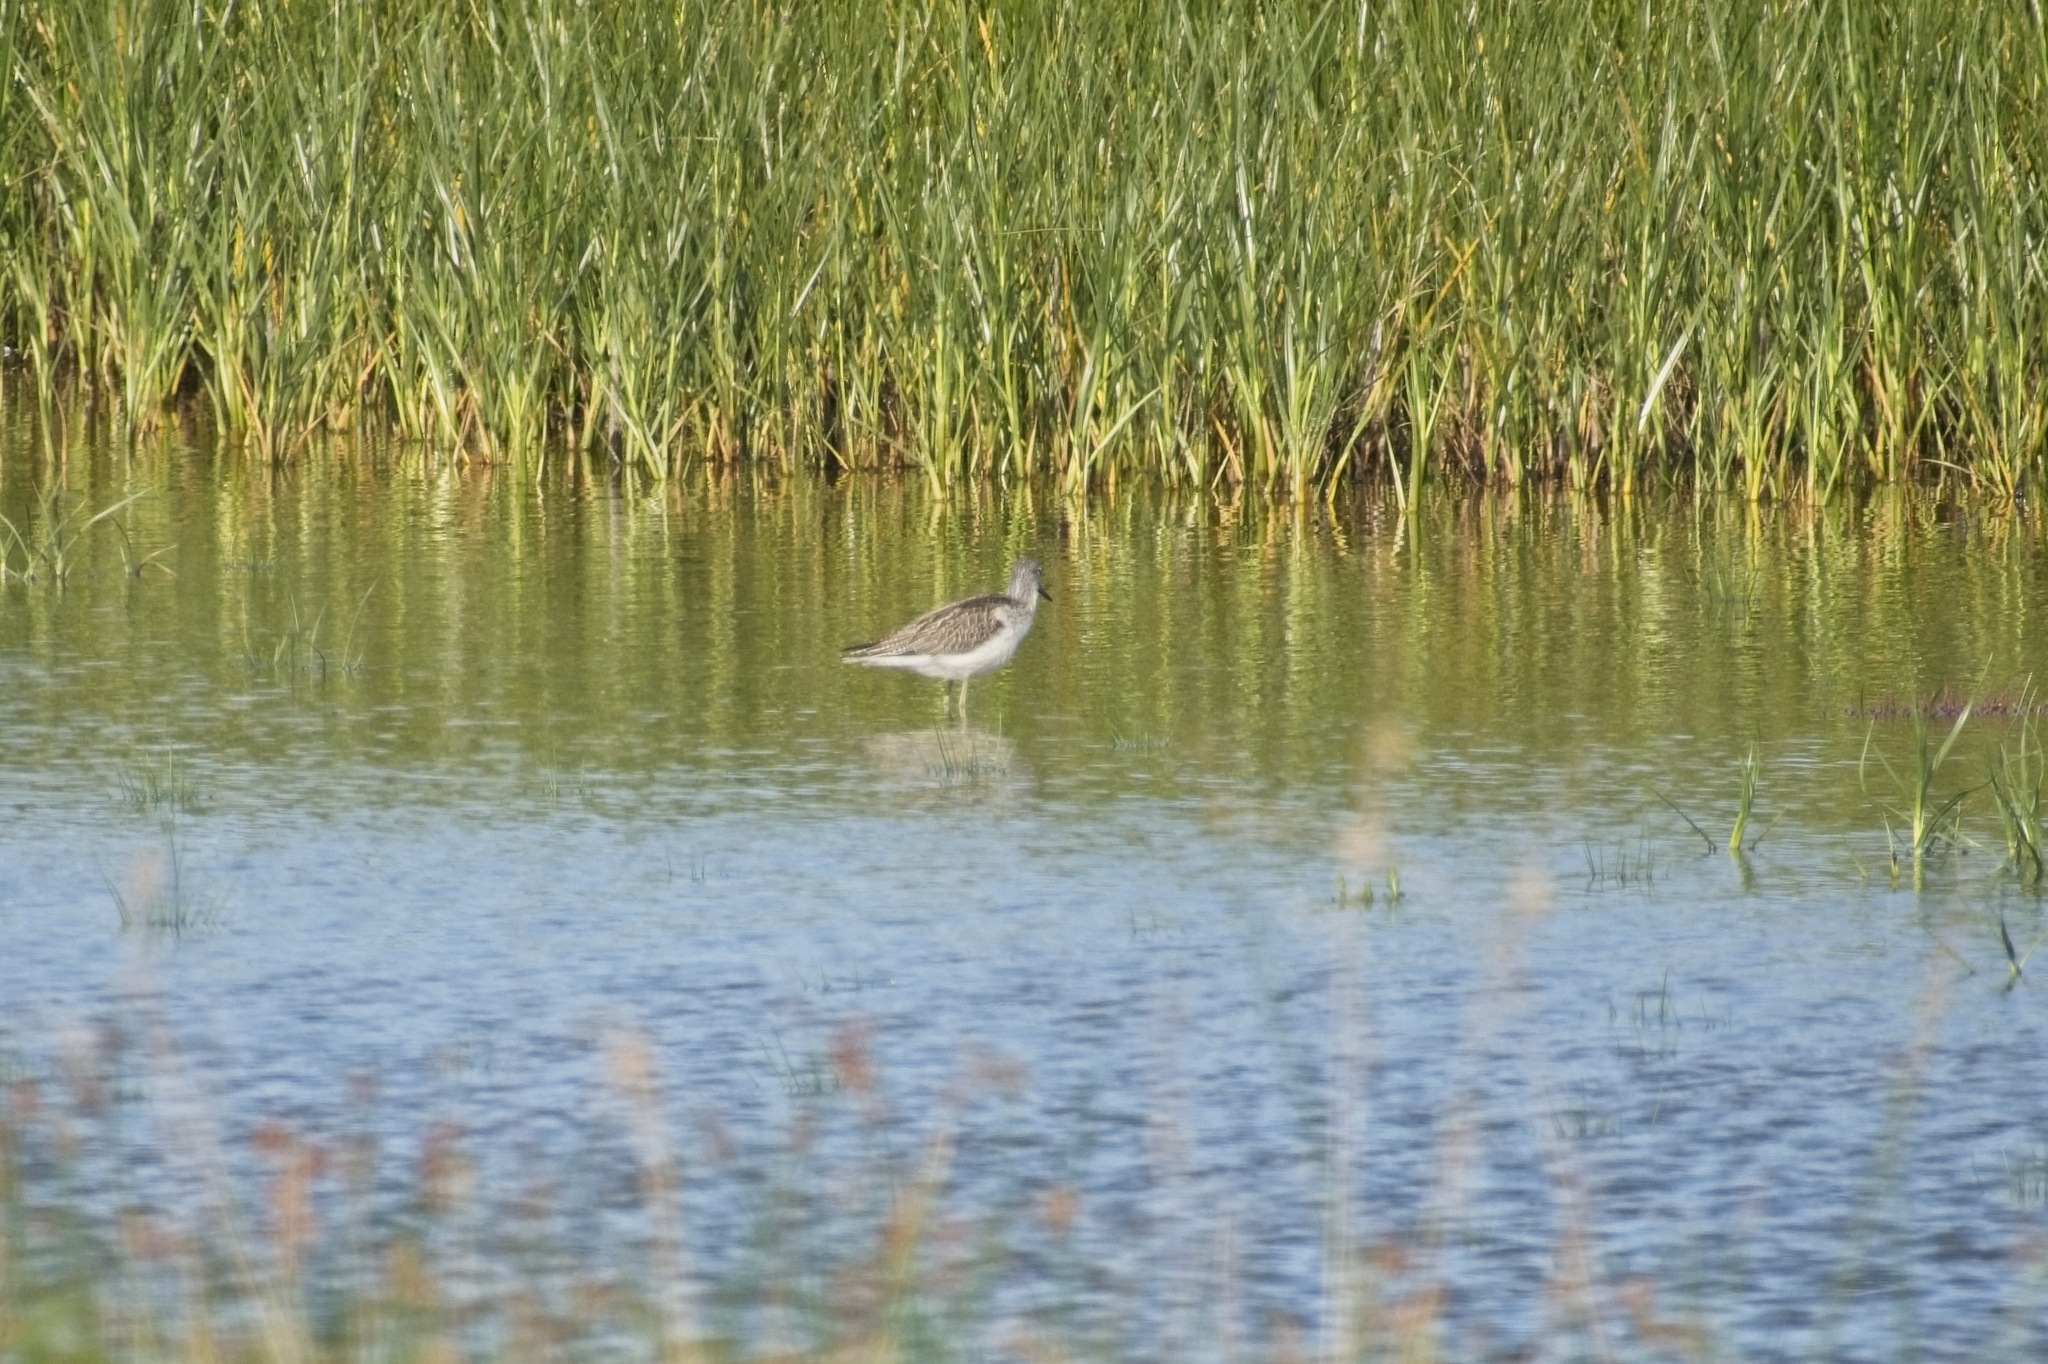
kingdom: Animalia
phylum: Chordata
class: Aves
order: Charadriiformes
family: Scolopacidae
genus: Tringa
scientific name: Tringa nebularia
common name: Common greenshank
